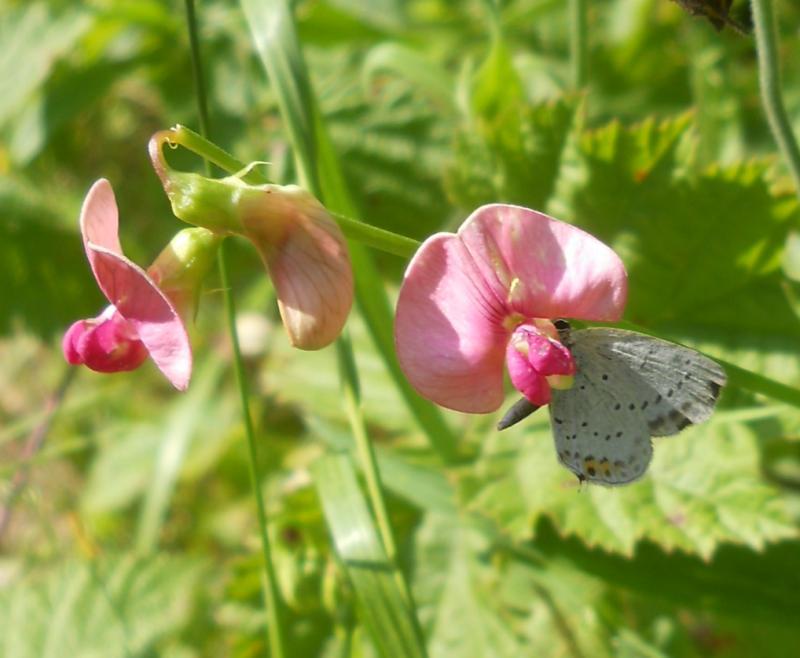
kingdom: Plantae
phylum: Tracheophyta
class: Magnoliopsida
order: Fabales
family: Fabaceae
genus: Lathyrus
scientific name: Lathyrus sylvestris
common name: Flat pea
